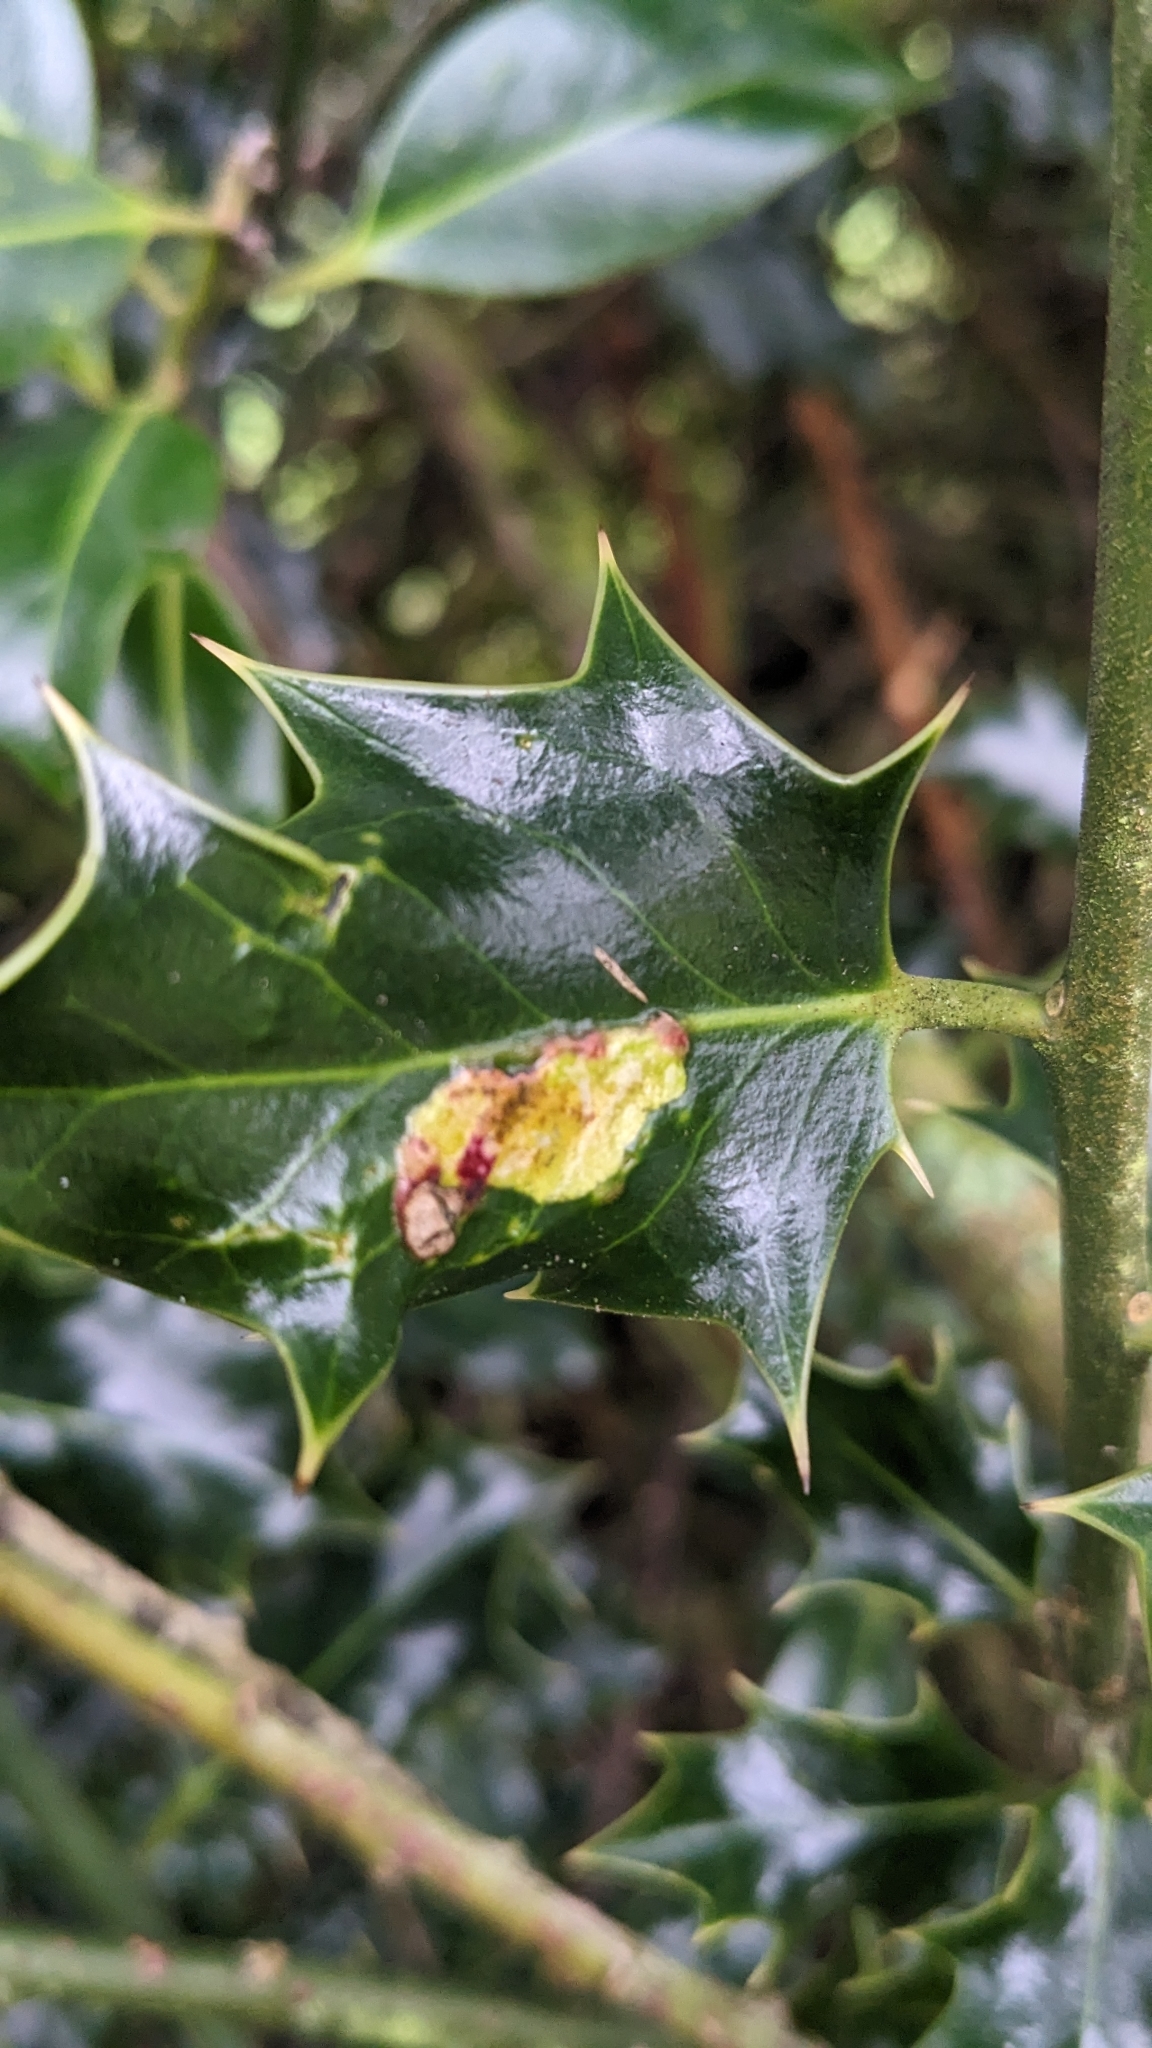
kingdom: Animalia
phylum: Arthropoda
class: Insecta
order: Diptera
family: Agromyzidae
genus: Phytomyza
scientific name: Phytomyza ilicis
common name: Holly leafminer
